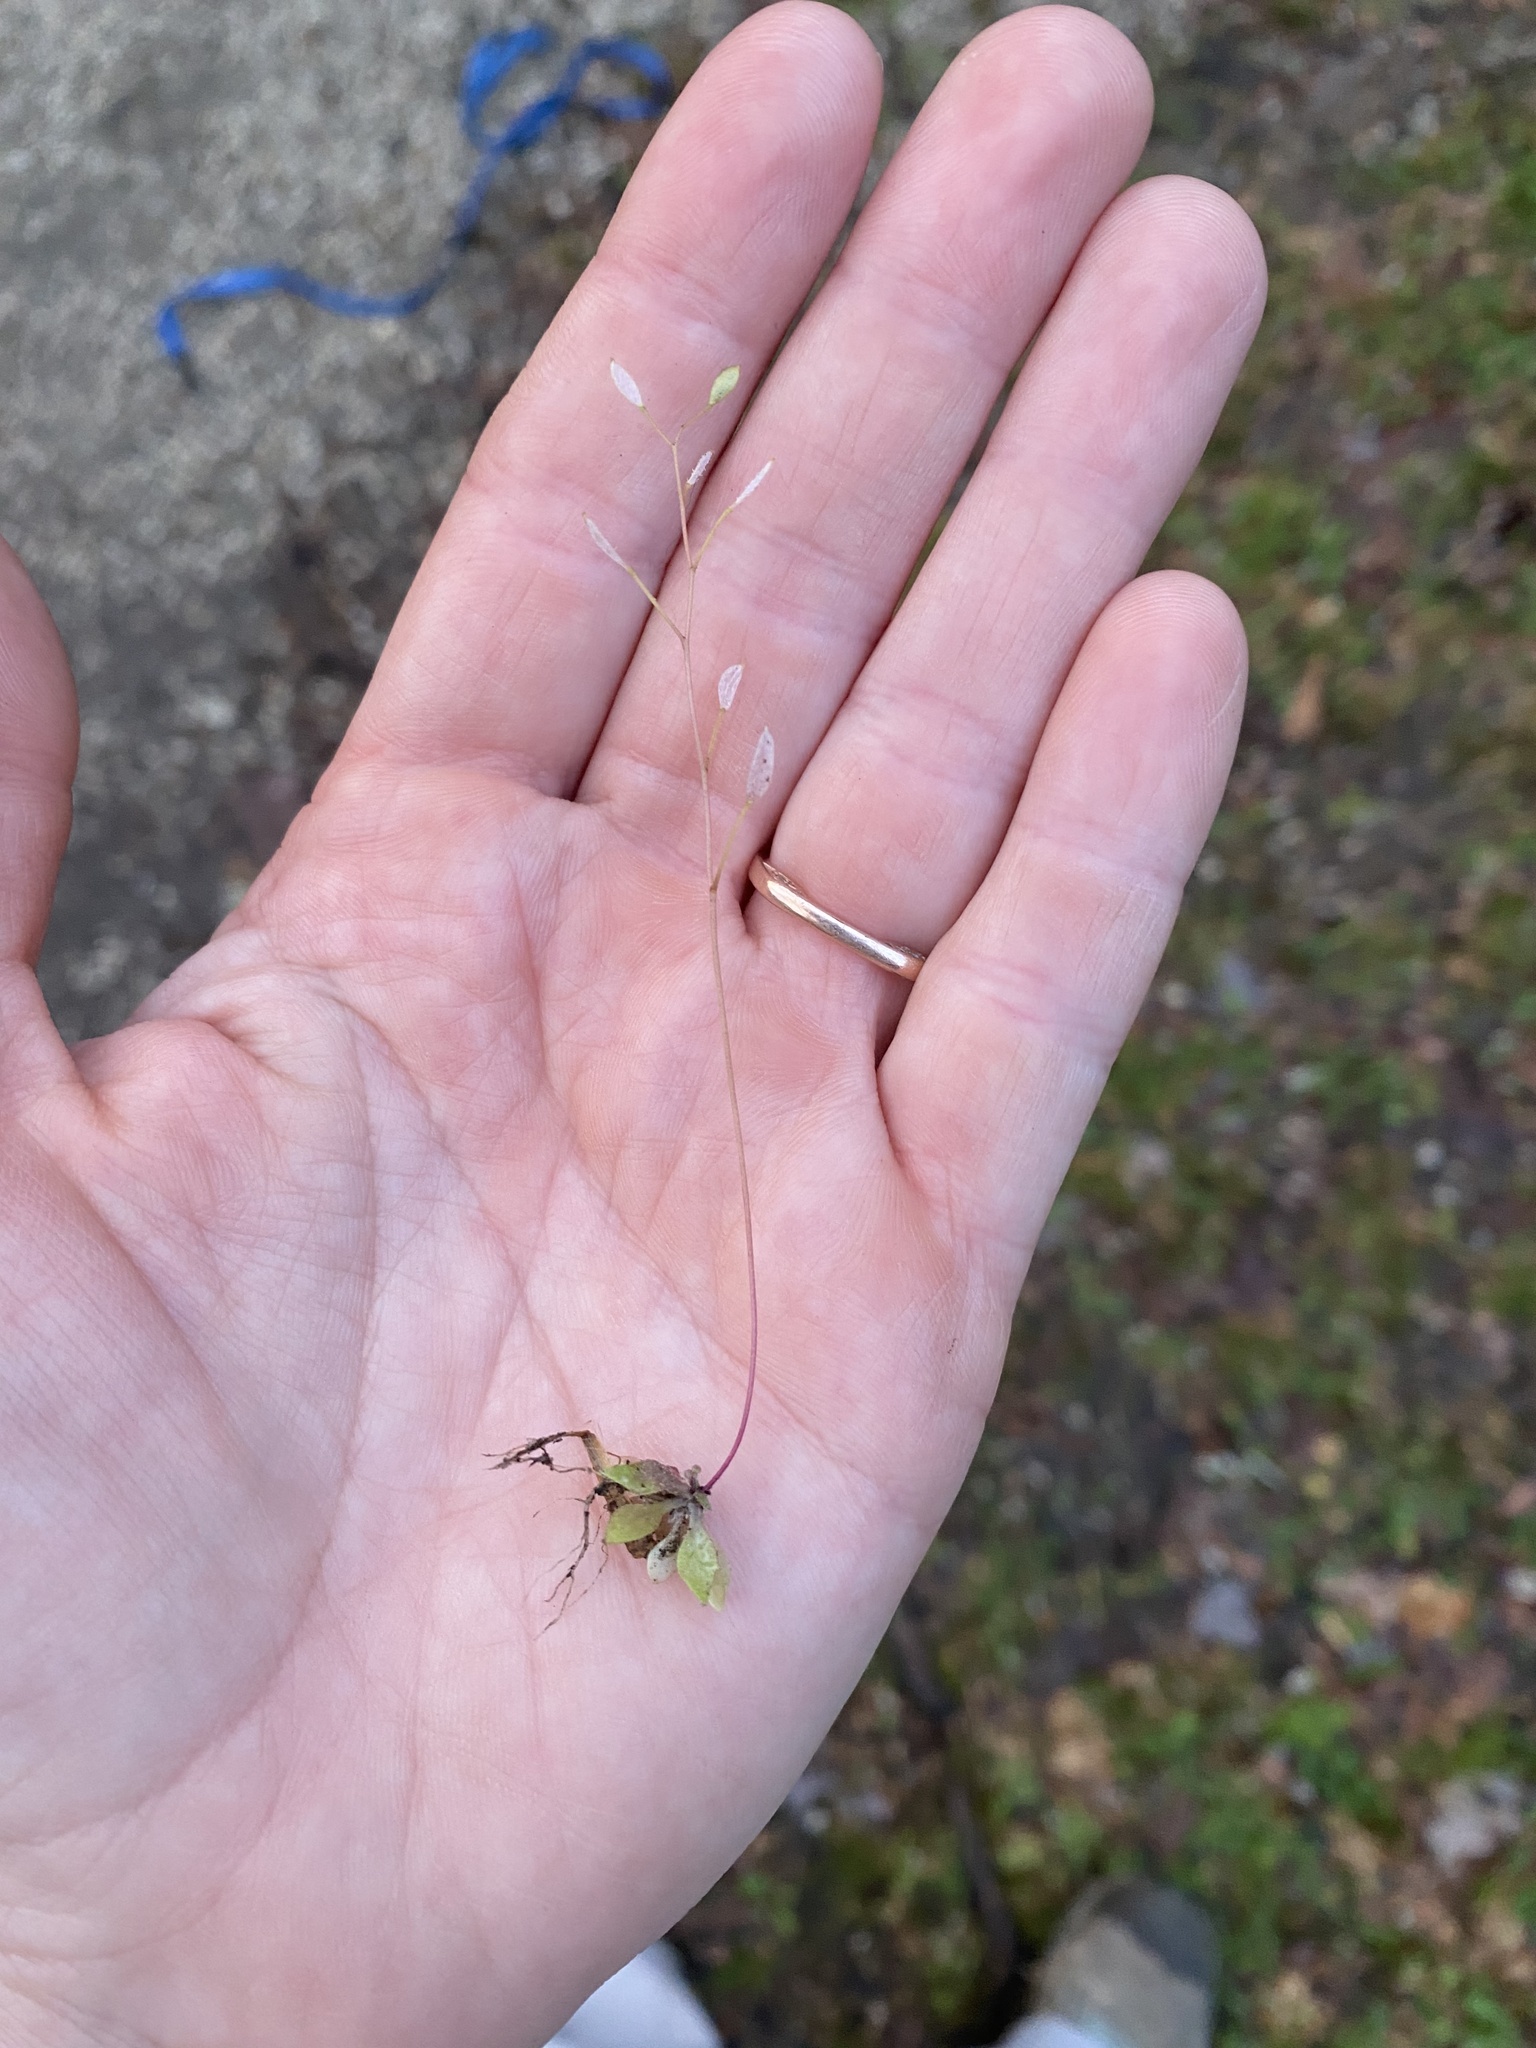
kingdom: Plantae
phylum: Tracheophyta
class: Magnoliopsida
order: Brassicales
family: Brassicaceae
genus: Draba
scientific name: Draba verna
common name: Spring draba
